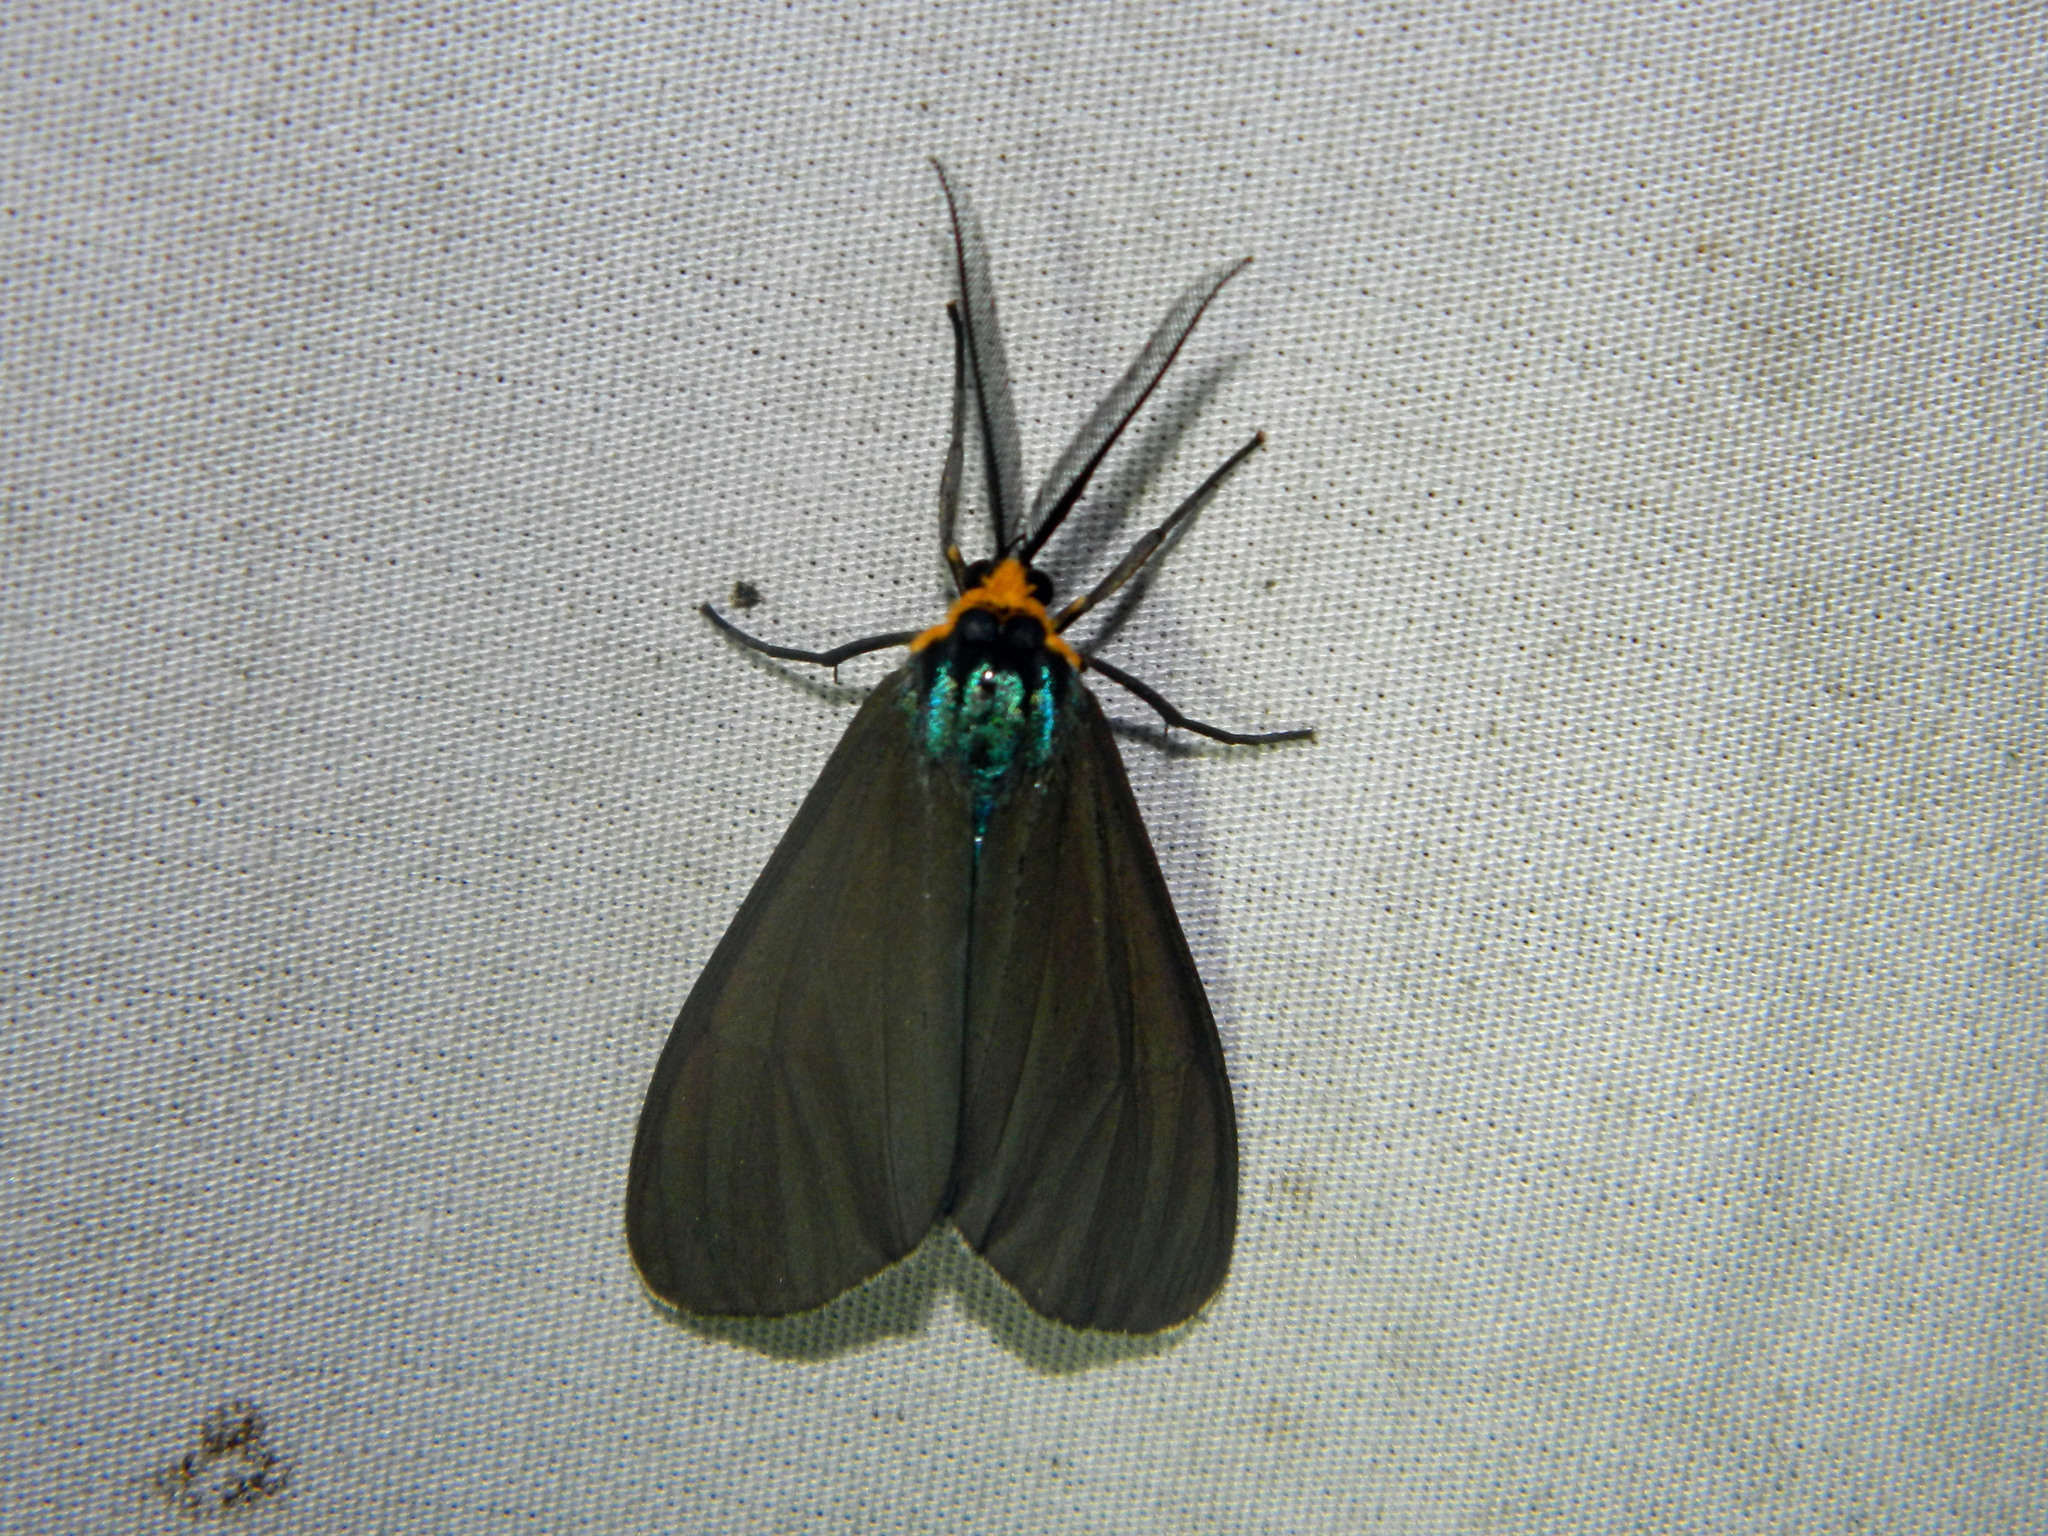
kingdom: Animalia
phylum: Arthropoda
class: Insecta
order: Lepidoptera
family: Erebidae
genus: Ctenucha
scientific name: Ctenucha virginica
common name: Virginia ctenucha moth
